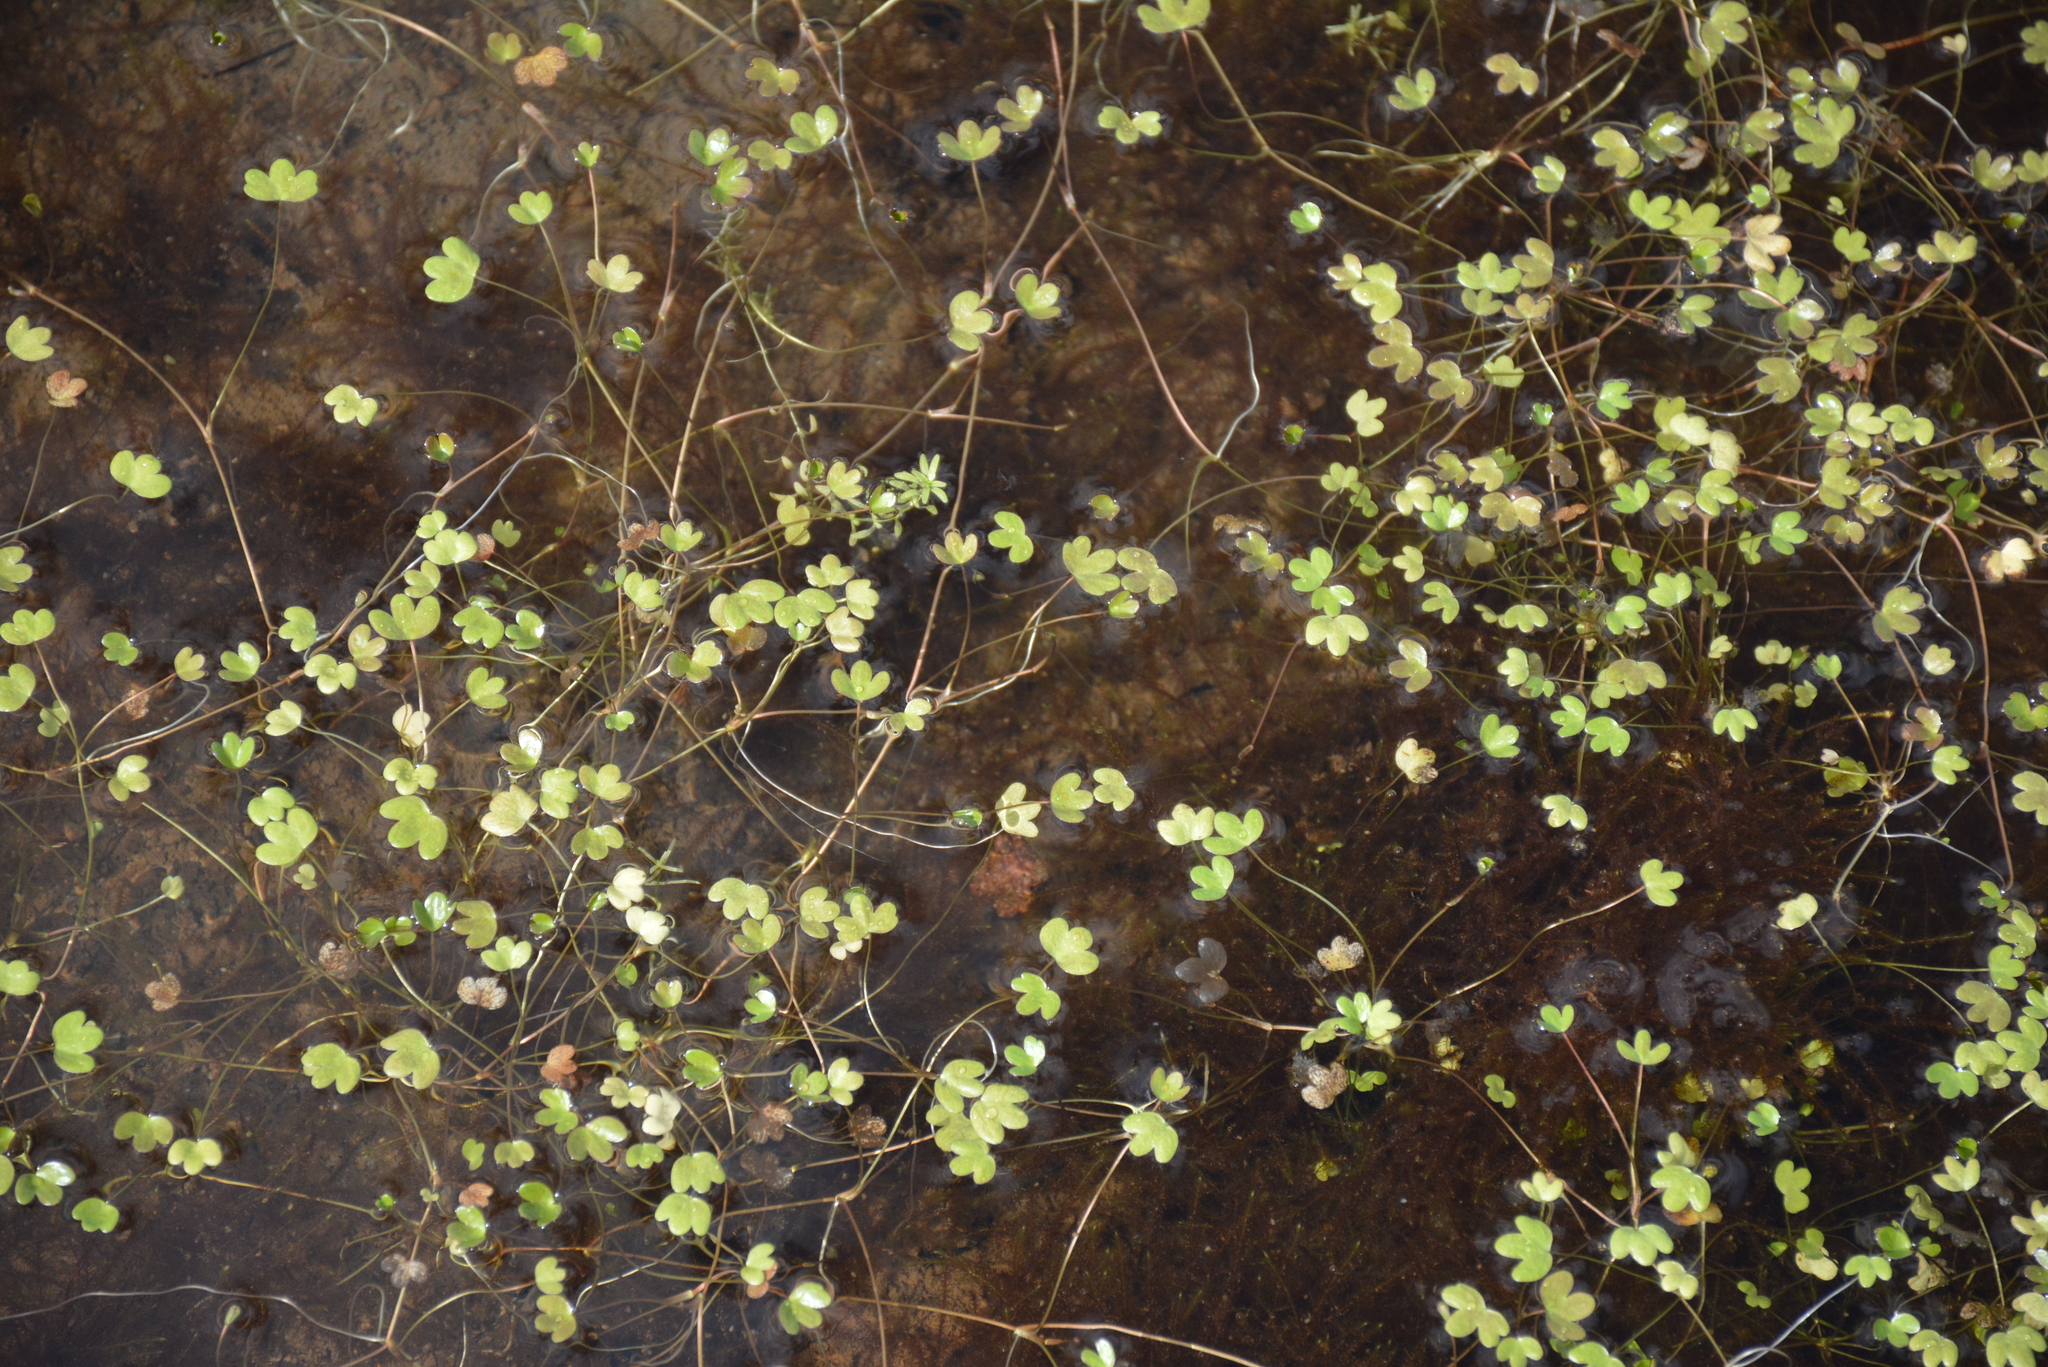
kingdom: Plantae
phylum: Tracheophyta
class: Magnoliopsida
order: Ranunculales
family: Ranunculaceae
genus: Ranunculus
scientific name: Ranunculus hyperboreus
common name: Arctic buttercup
